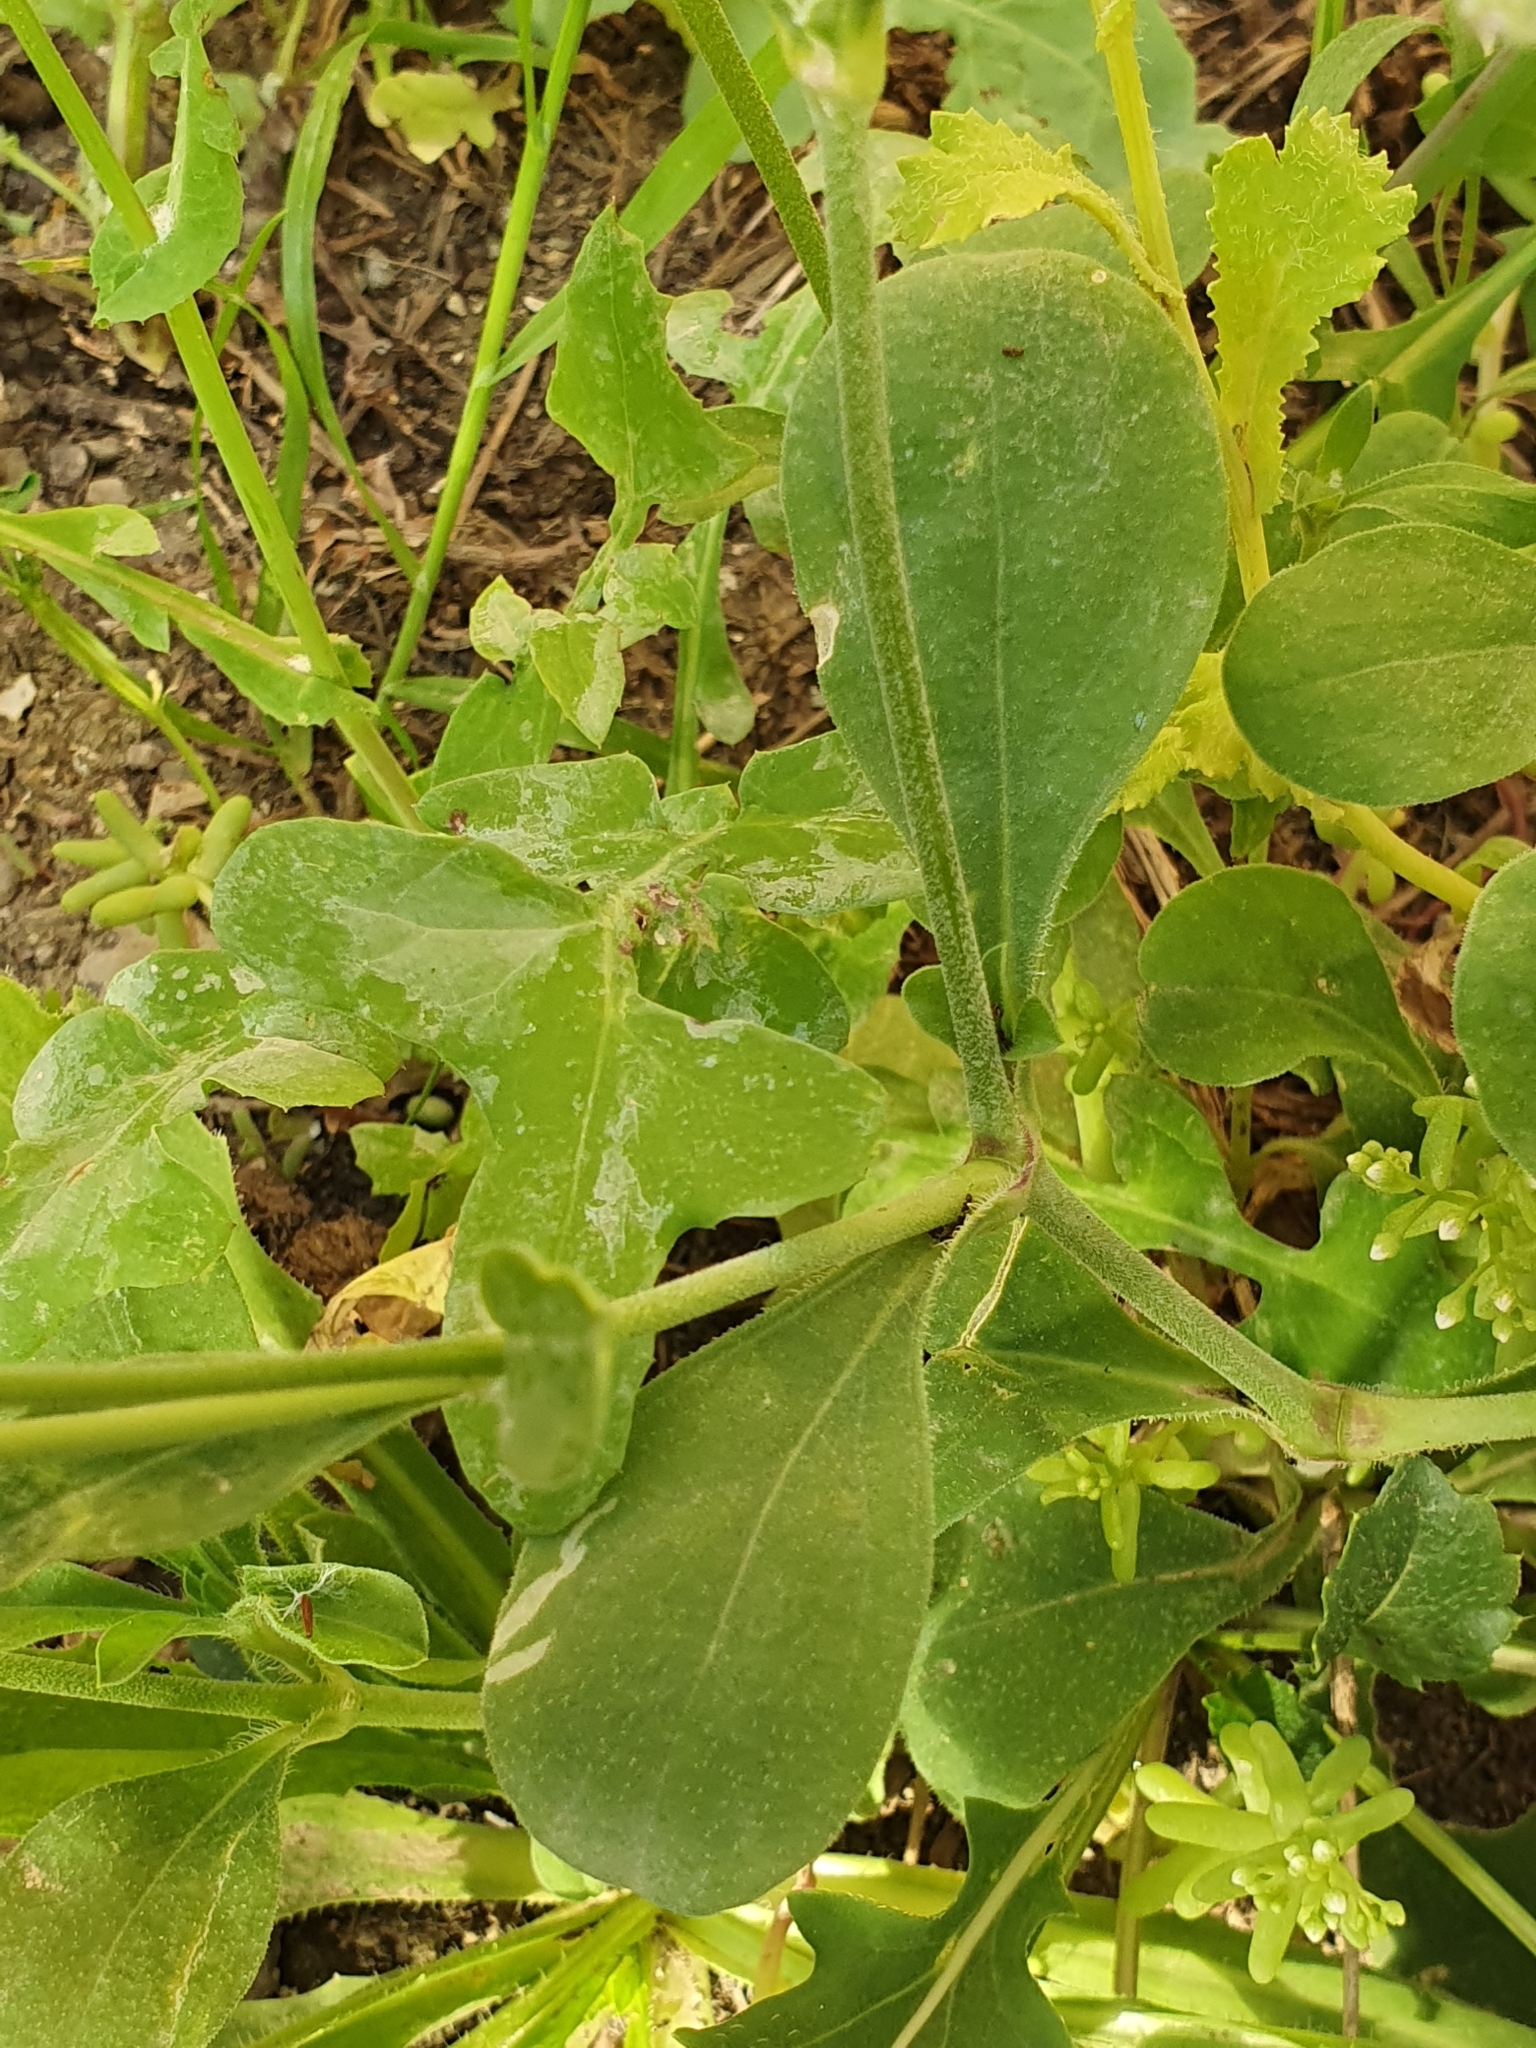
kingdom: Plantae
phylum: Tracheophyta
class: Magnoliopsida
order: Caryophyllales
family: Caryophyllaceae
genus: Silene
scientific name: Silene colorata
